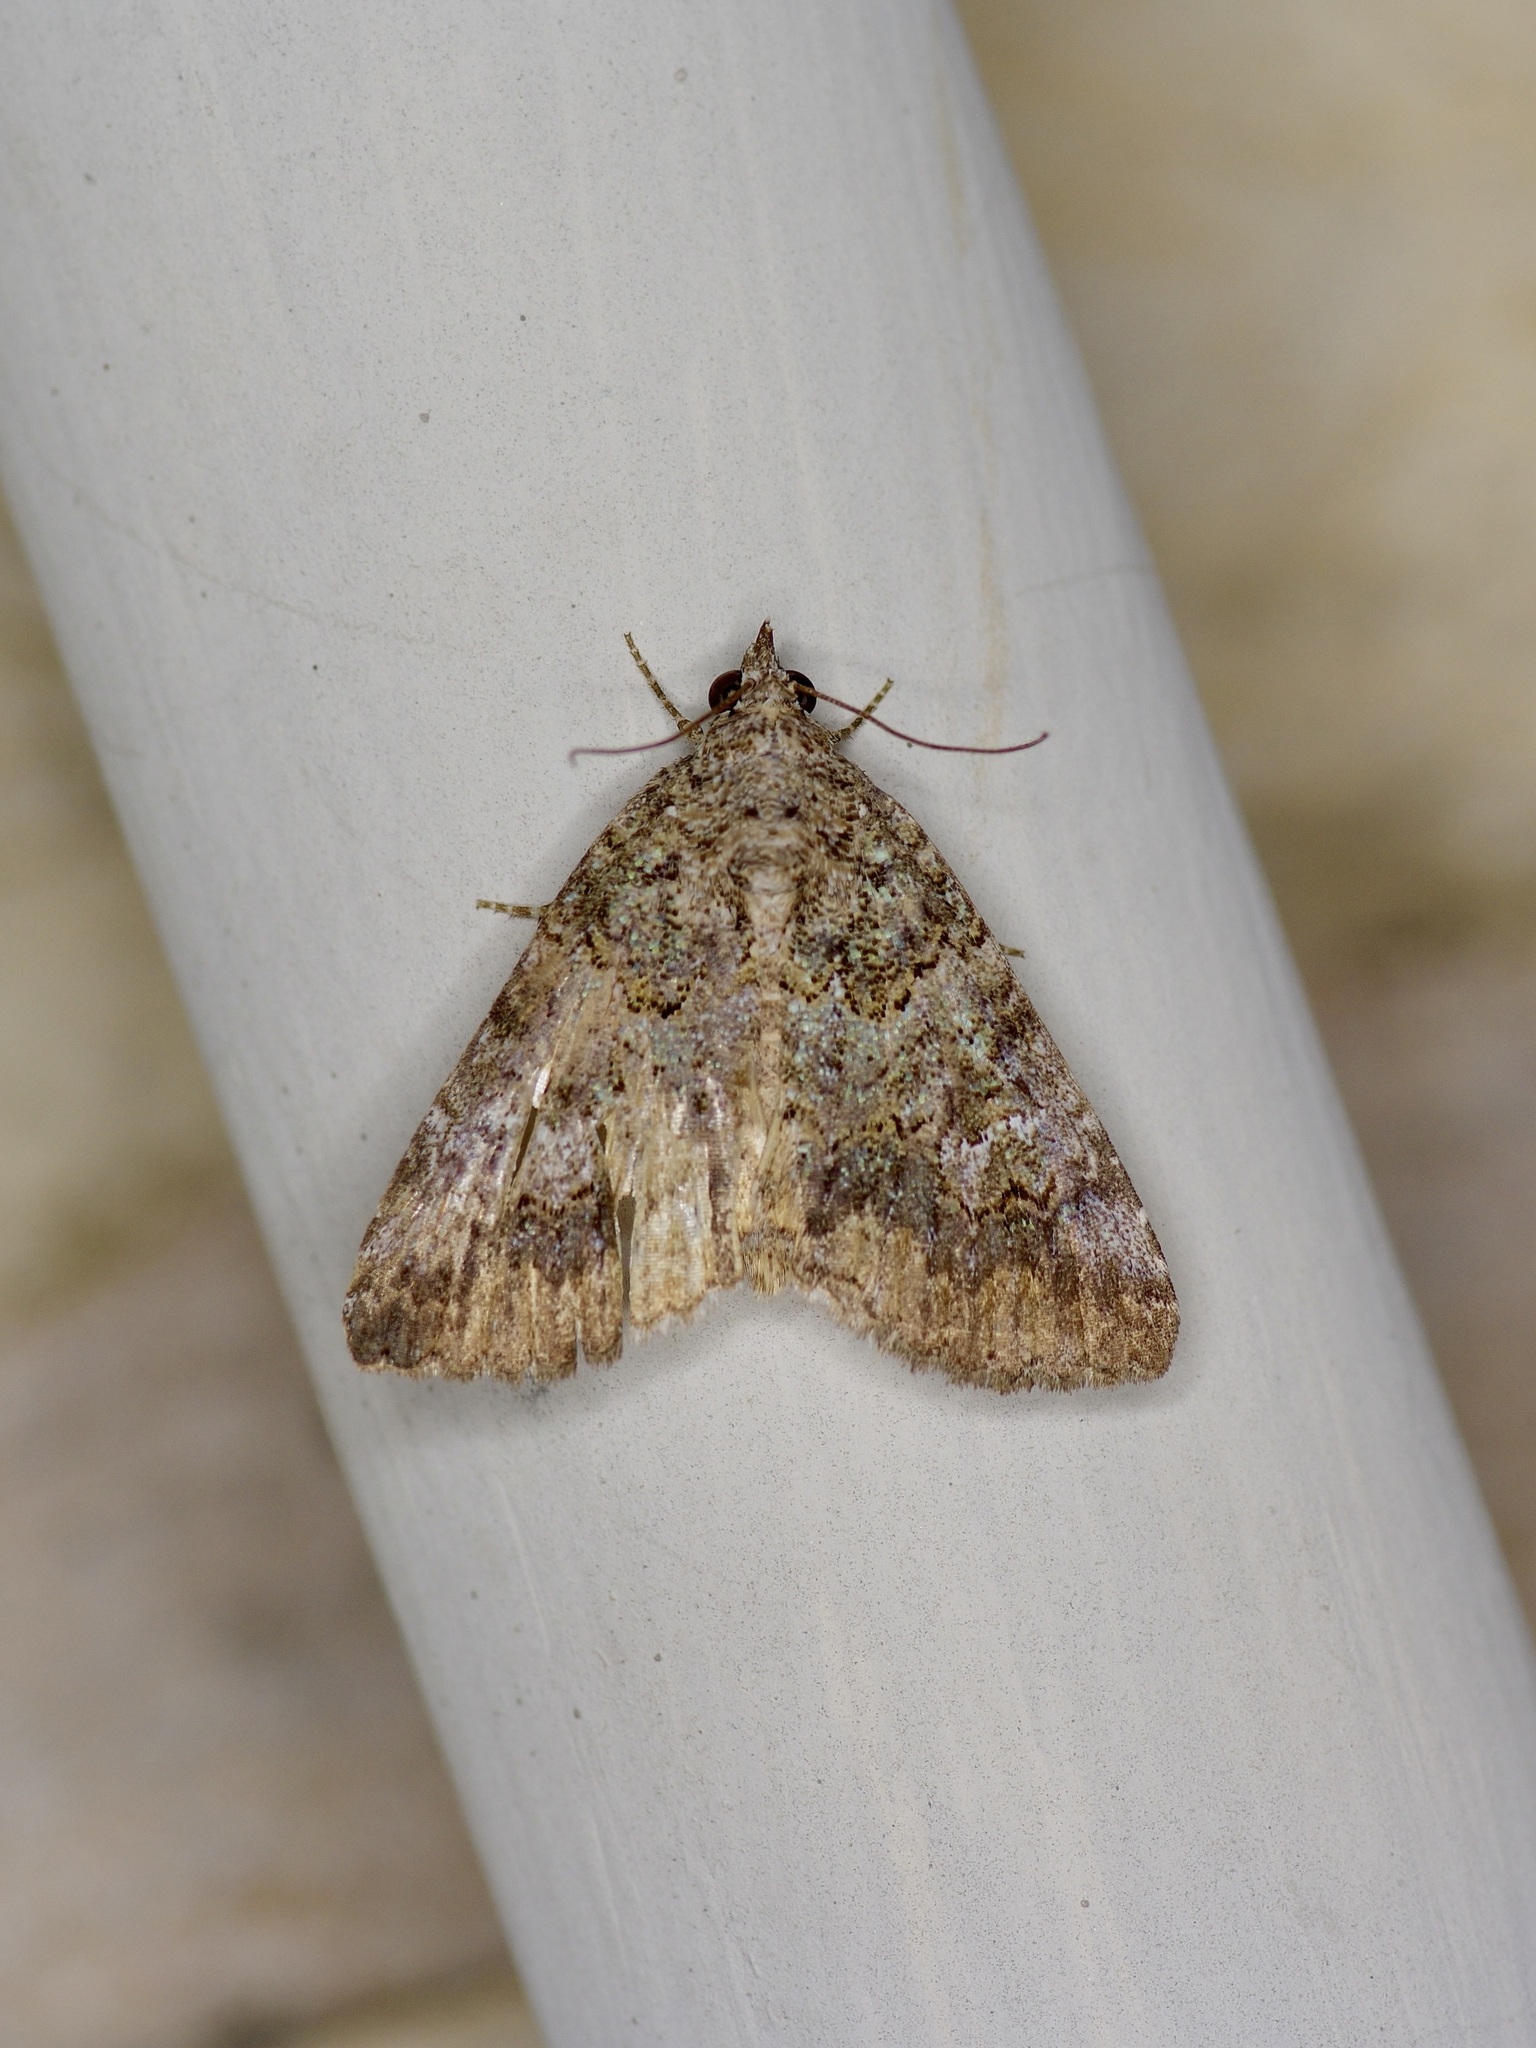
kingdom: Animalia
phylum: Arthropoda
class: Insecta
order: Lepidoptera
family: Erebidae
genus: Eubolina
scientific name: Eubolina impartialis
